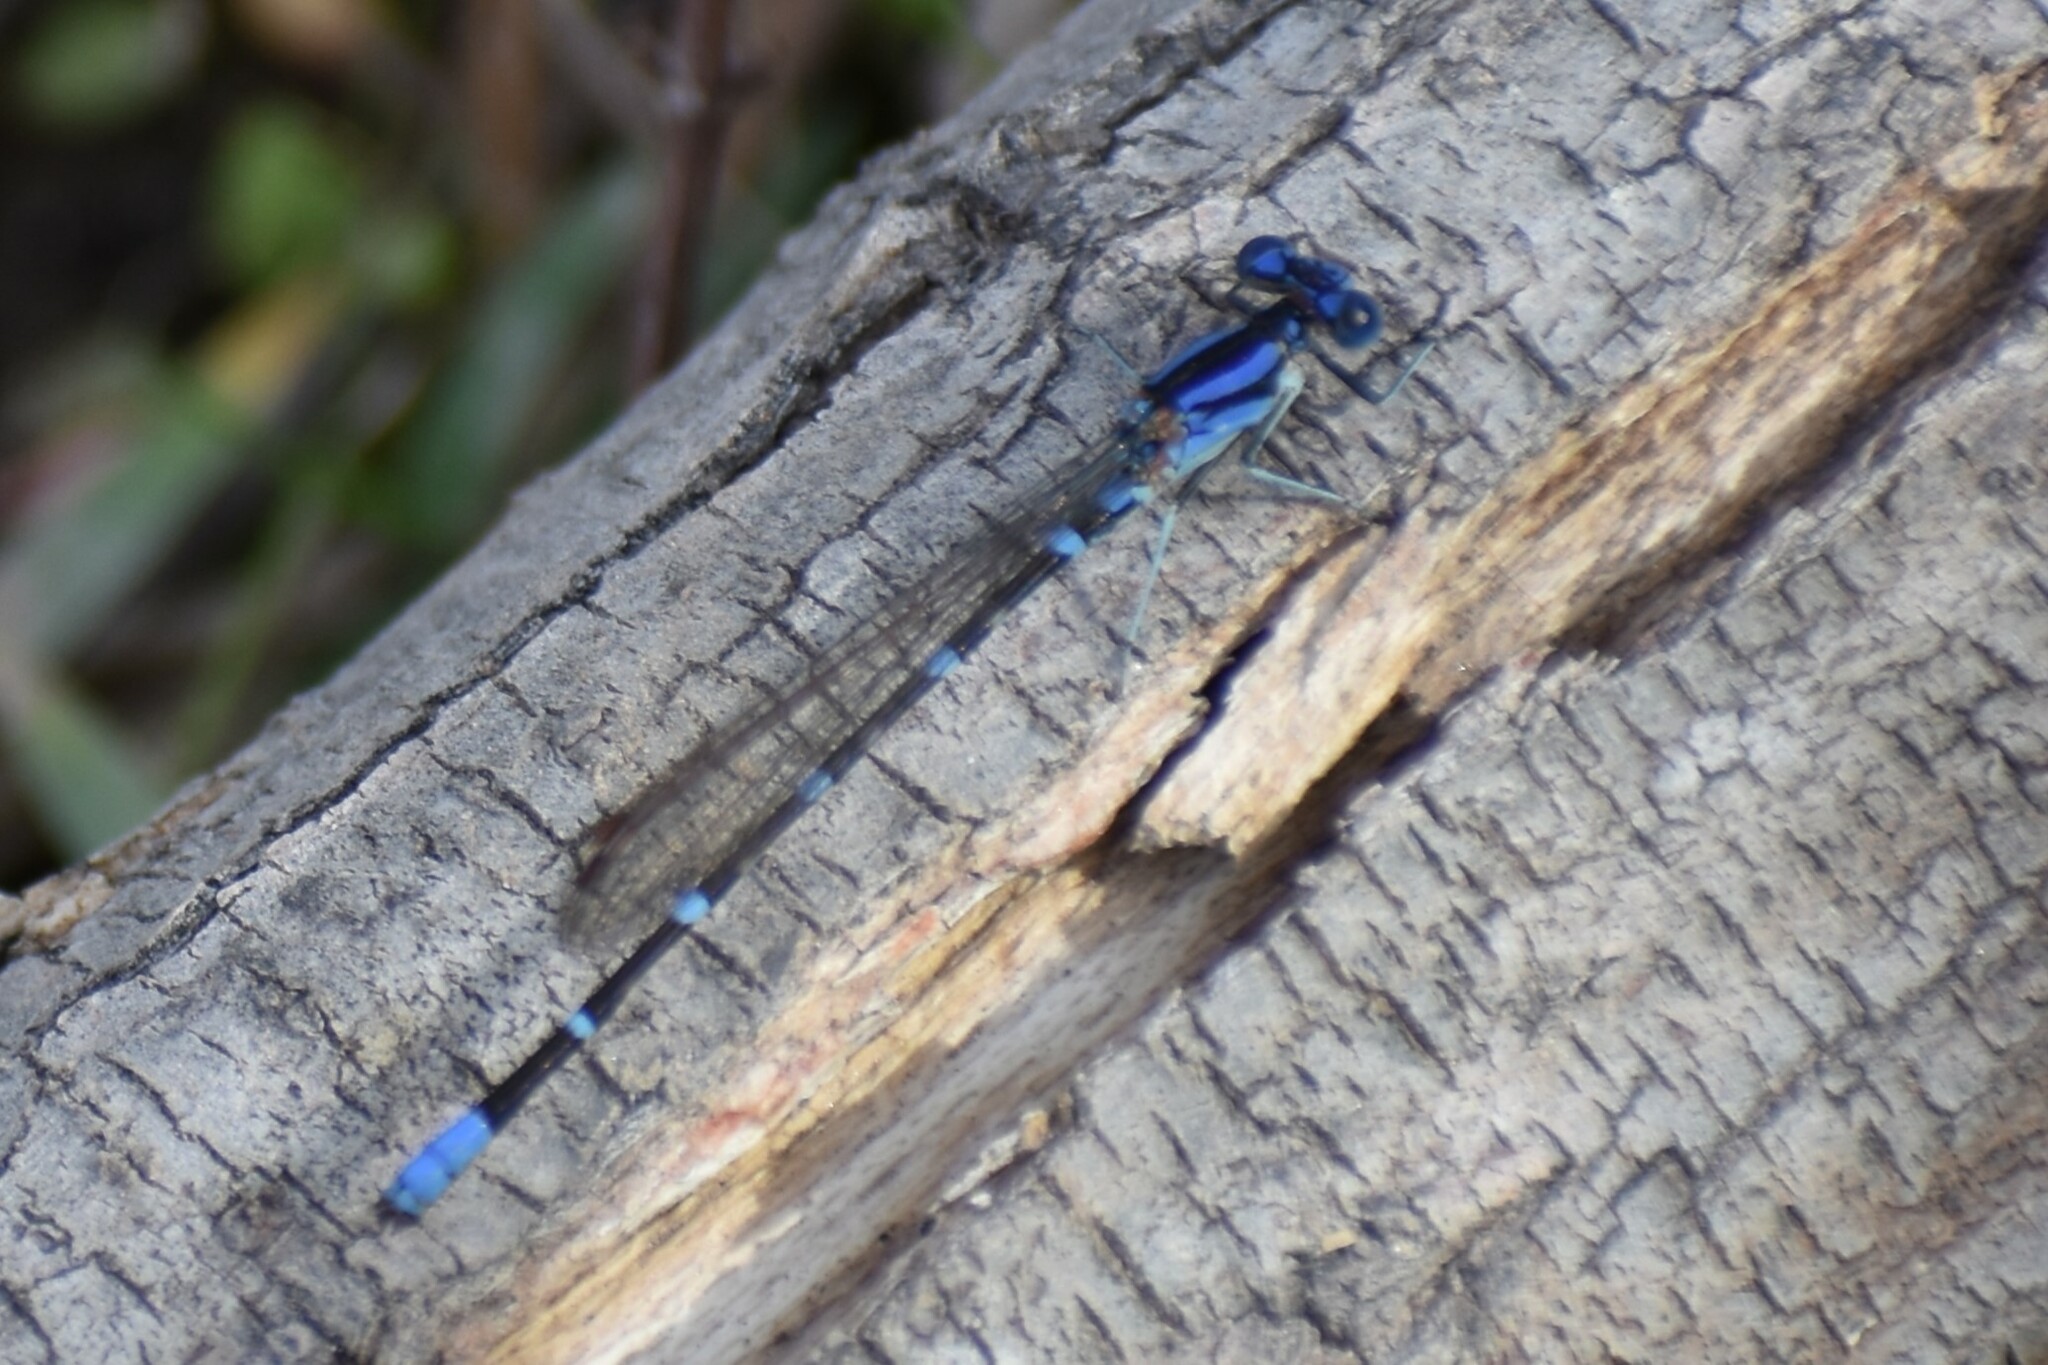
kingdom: Animalia
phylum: Arthropoda
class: Insecta
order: Odonata
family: Coenagrionidae
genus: Argia
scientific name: Argia sedula
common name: Blue-ringed dancer
